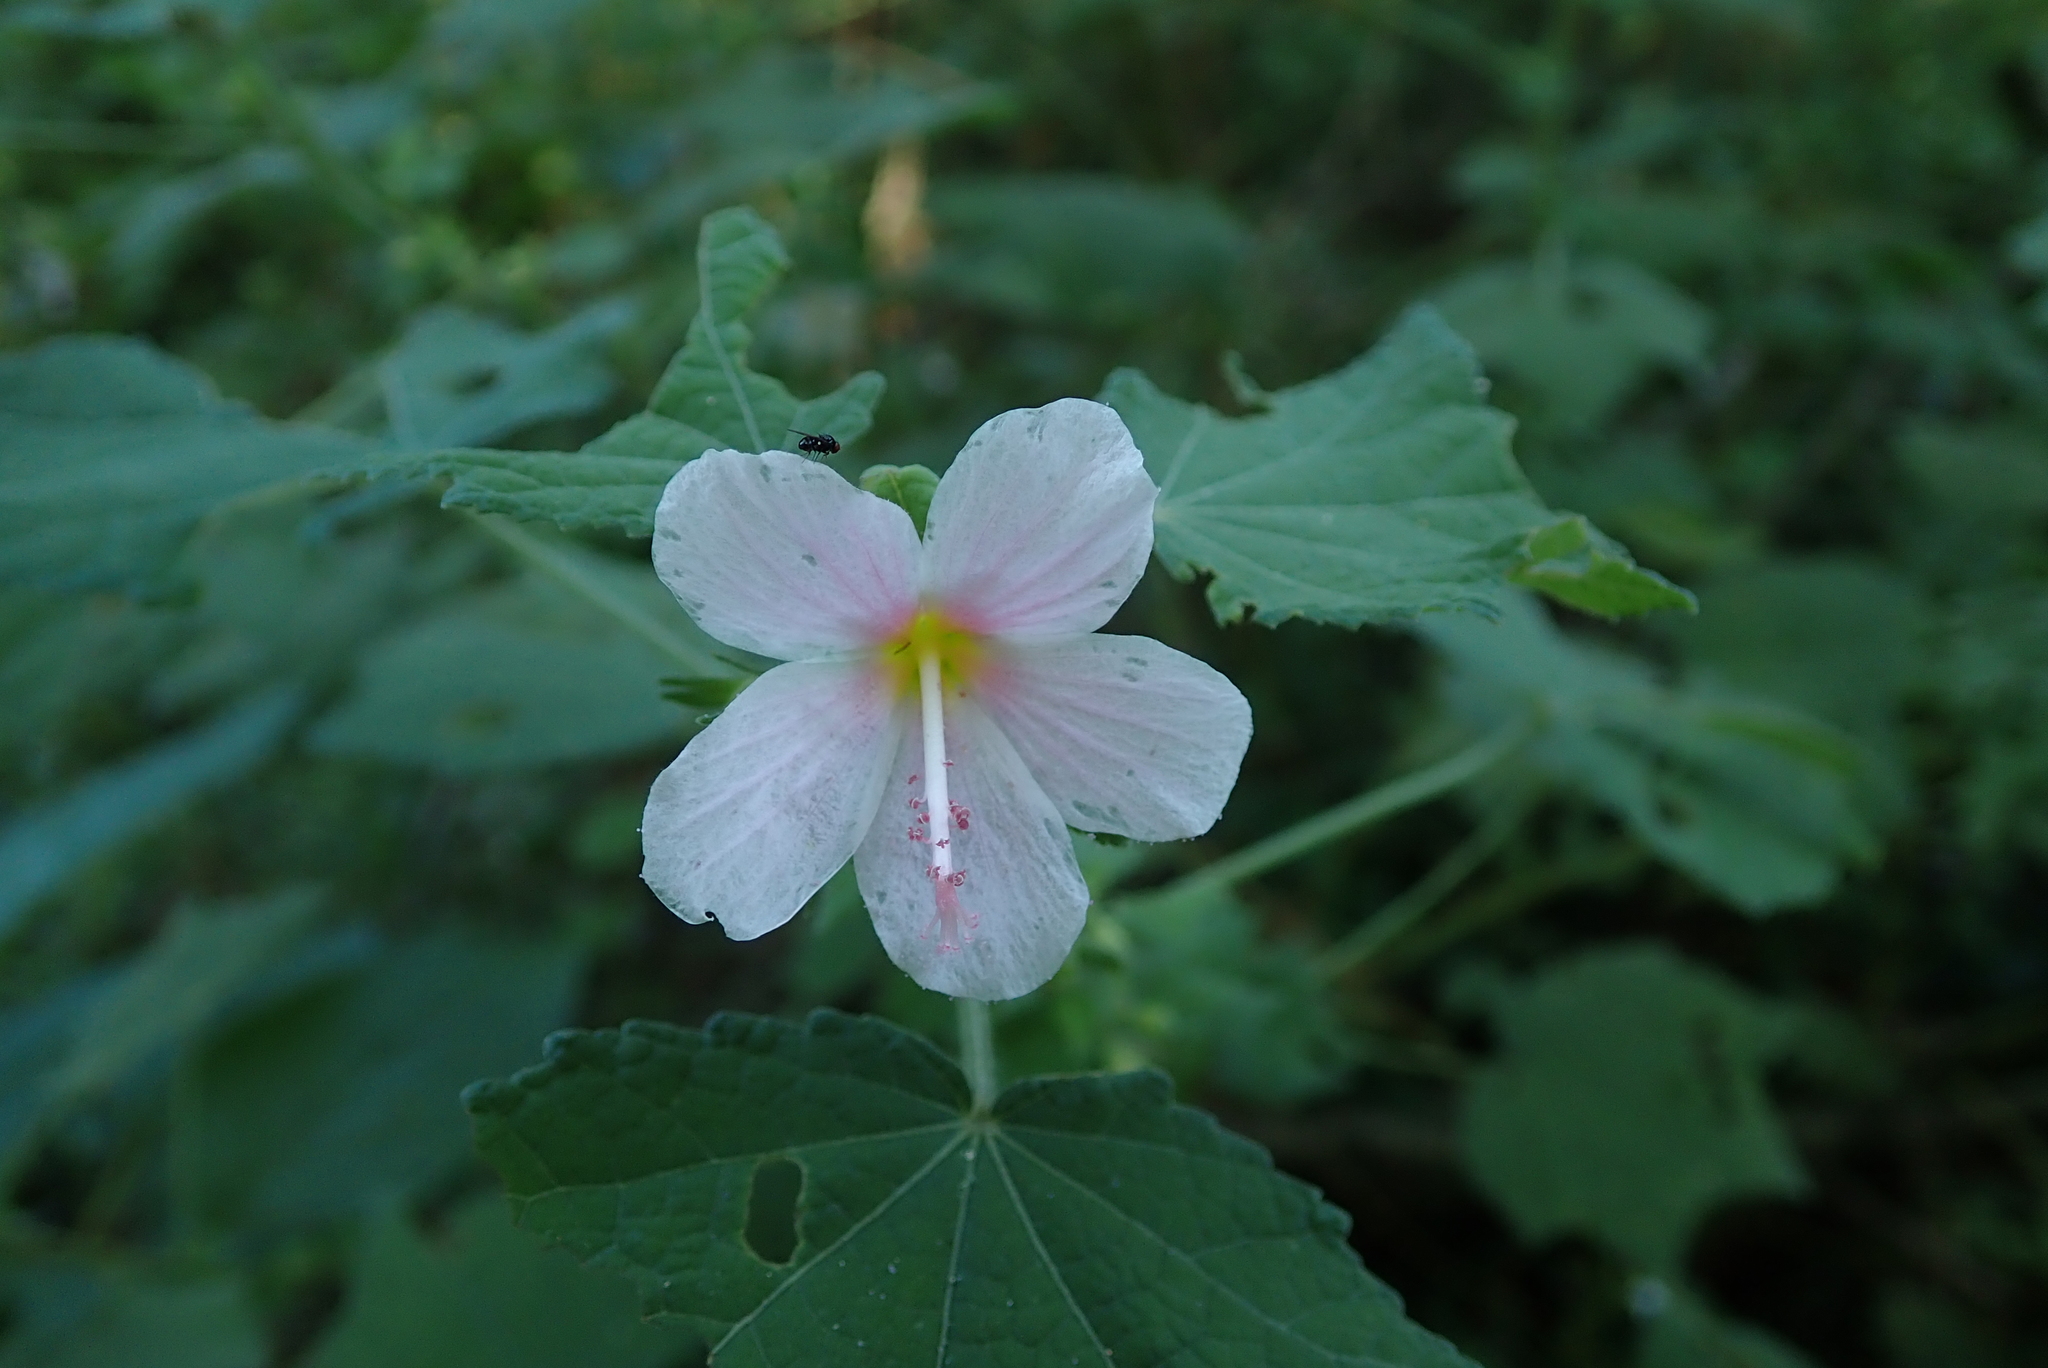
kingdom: Plantae
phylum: Tracheophyta
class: Magnoliopsida
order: Malvales
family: Malvaceae
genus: Pavonia
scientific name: Pavonia columella
